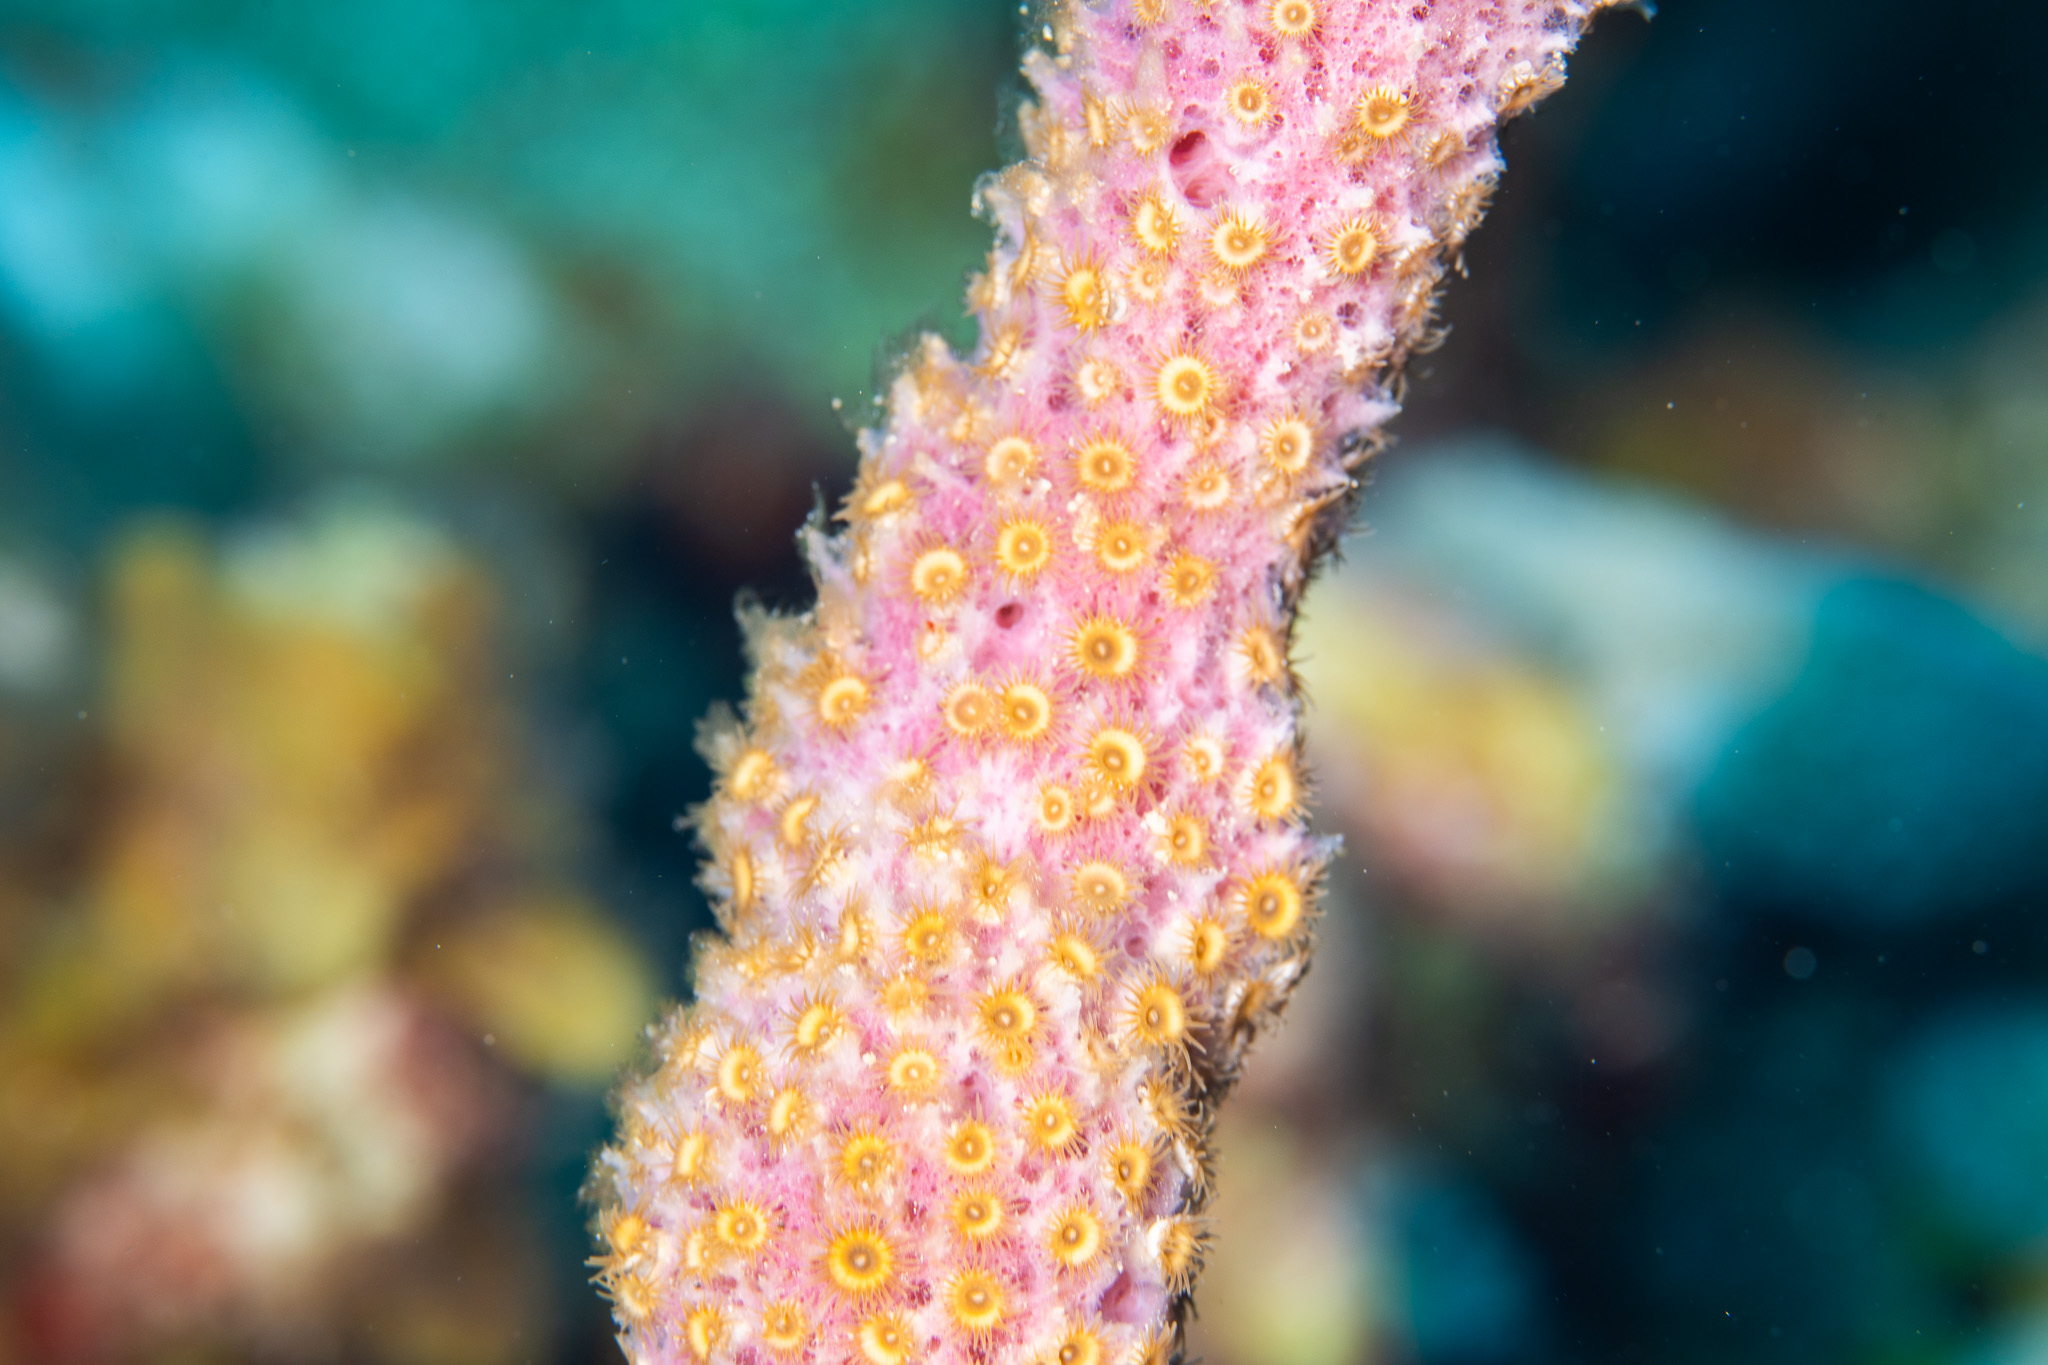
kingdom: Animalia
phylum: Cnidaria
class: Anthozoa
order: Zoantharia
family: Parazoanthidae
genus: Umimayanthus
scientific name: Umimayanthus parasiticus
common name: Sponge zoanthid
